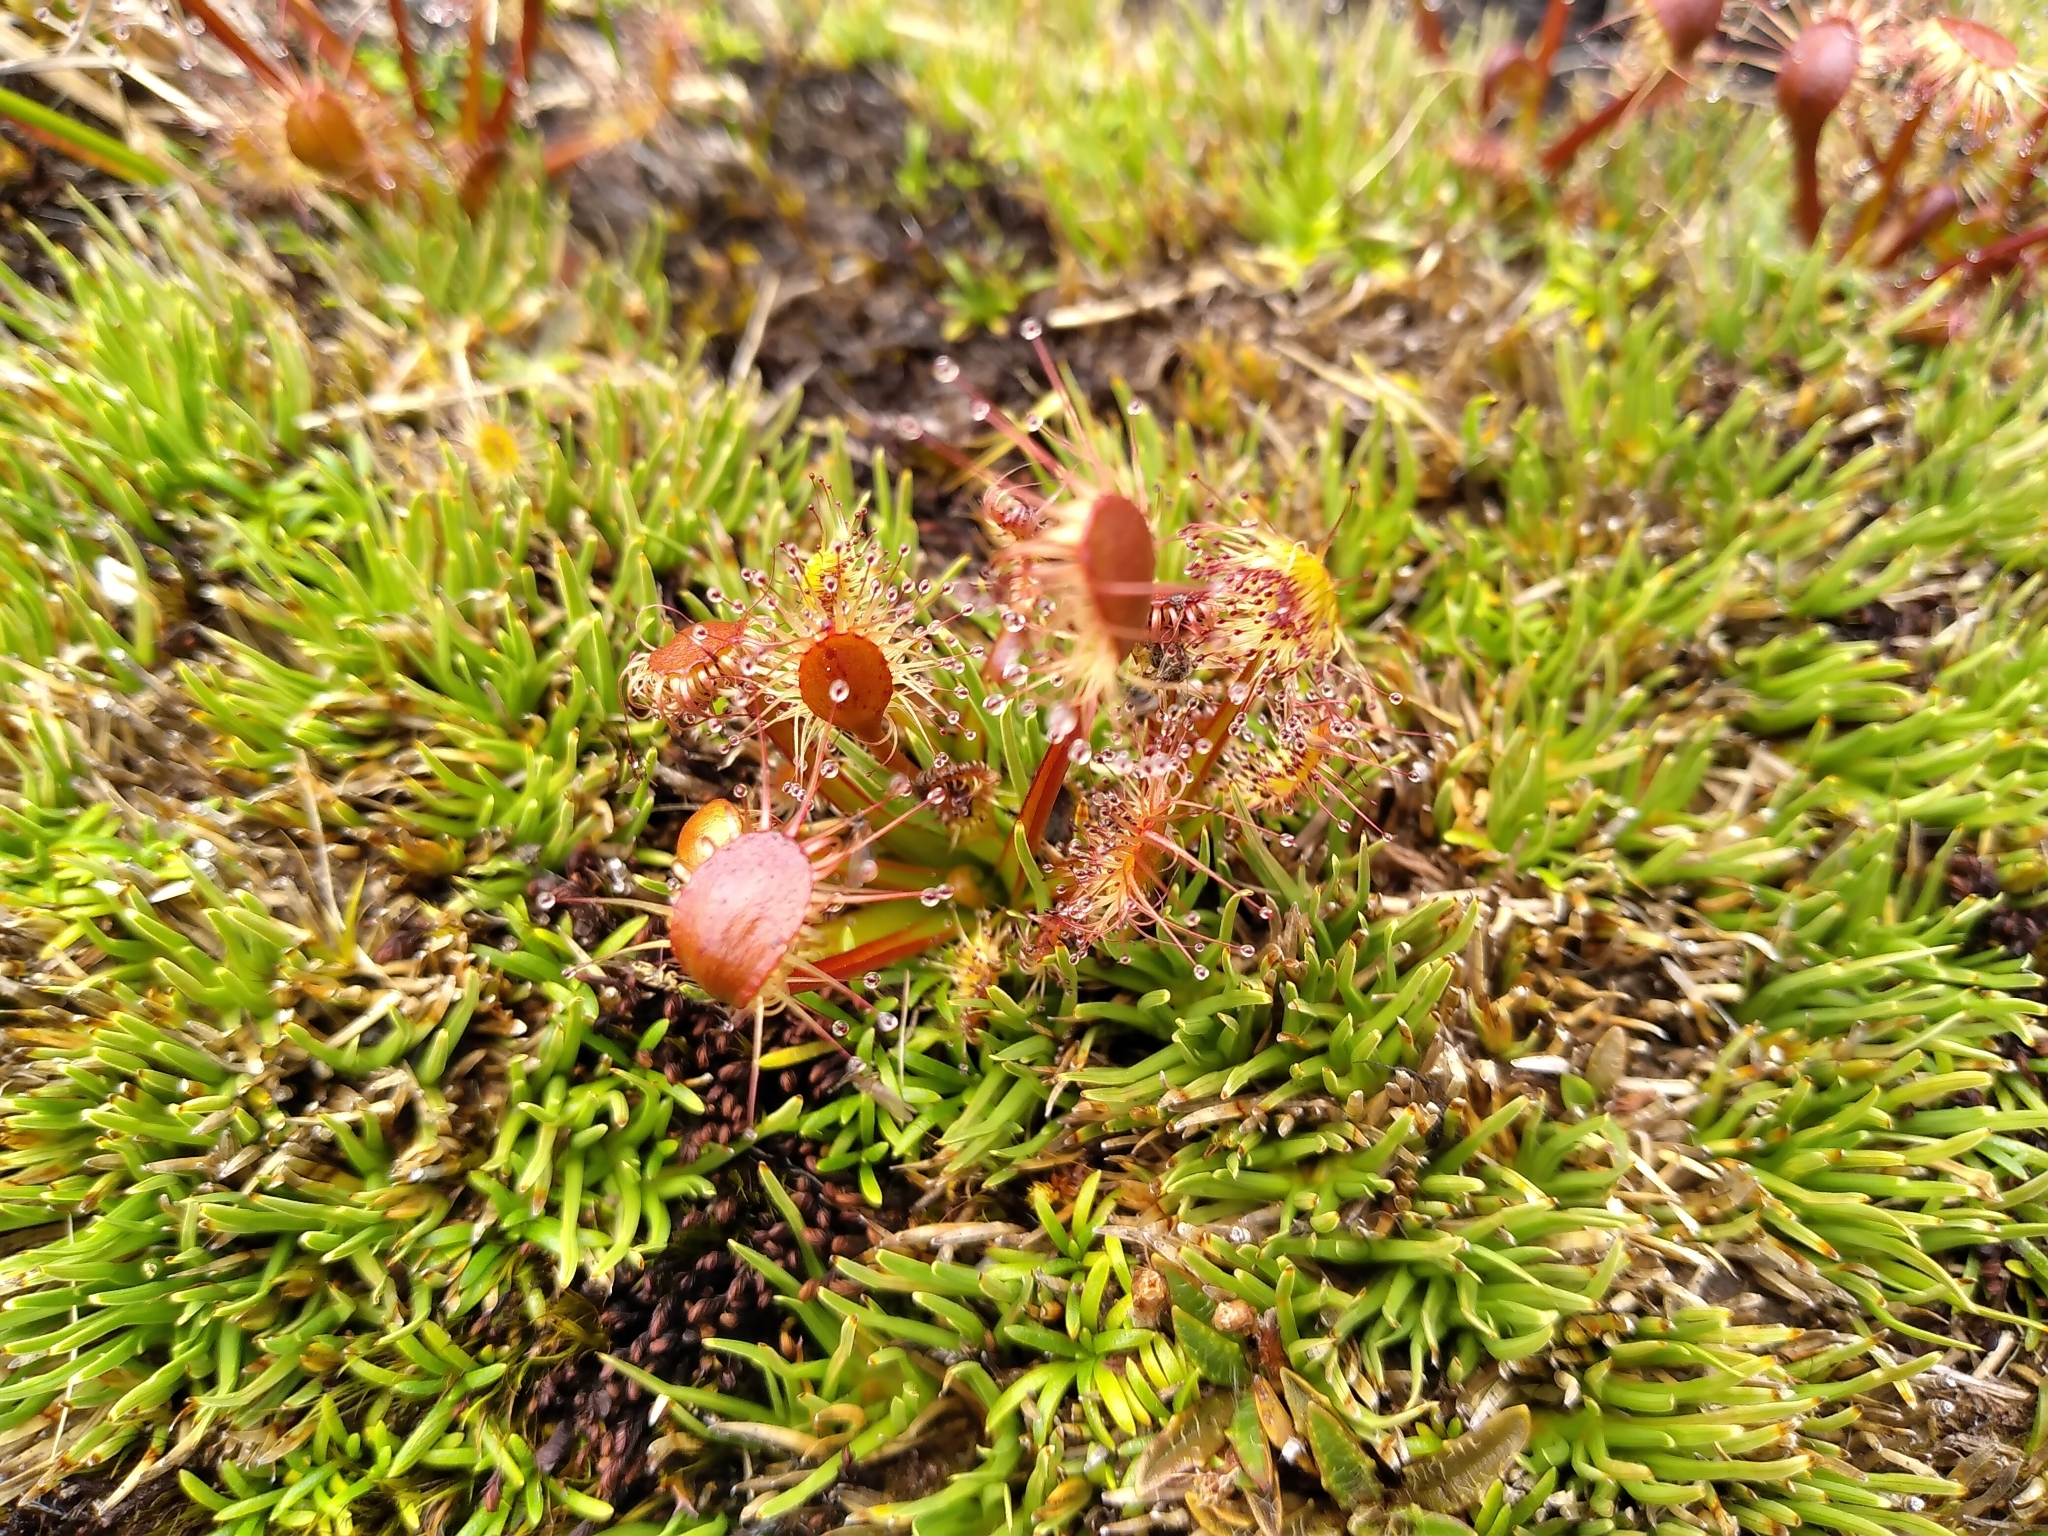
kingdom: Plantae
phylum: Tracheophyta
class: Magnoliopsida
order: Caryophyllales
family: Droseraceae
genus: Drosera
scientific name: Drosera stenopetala
